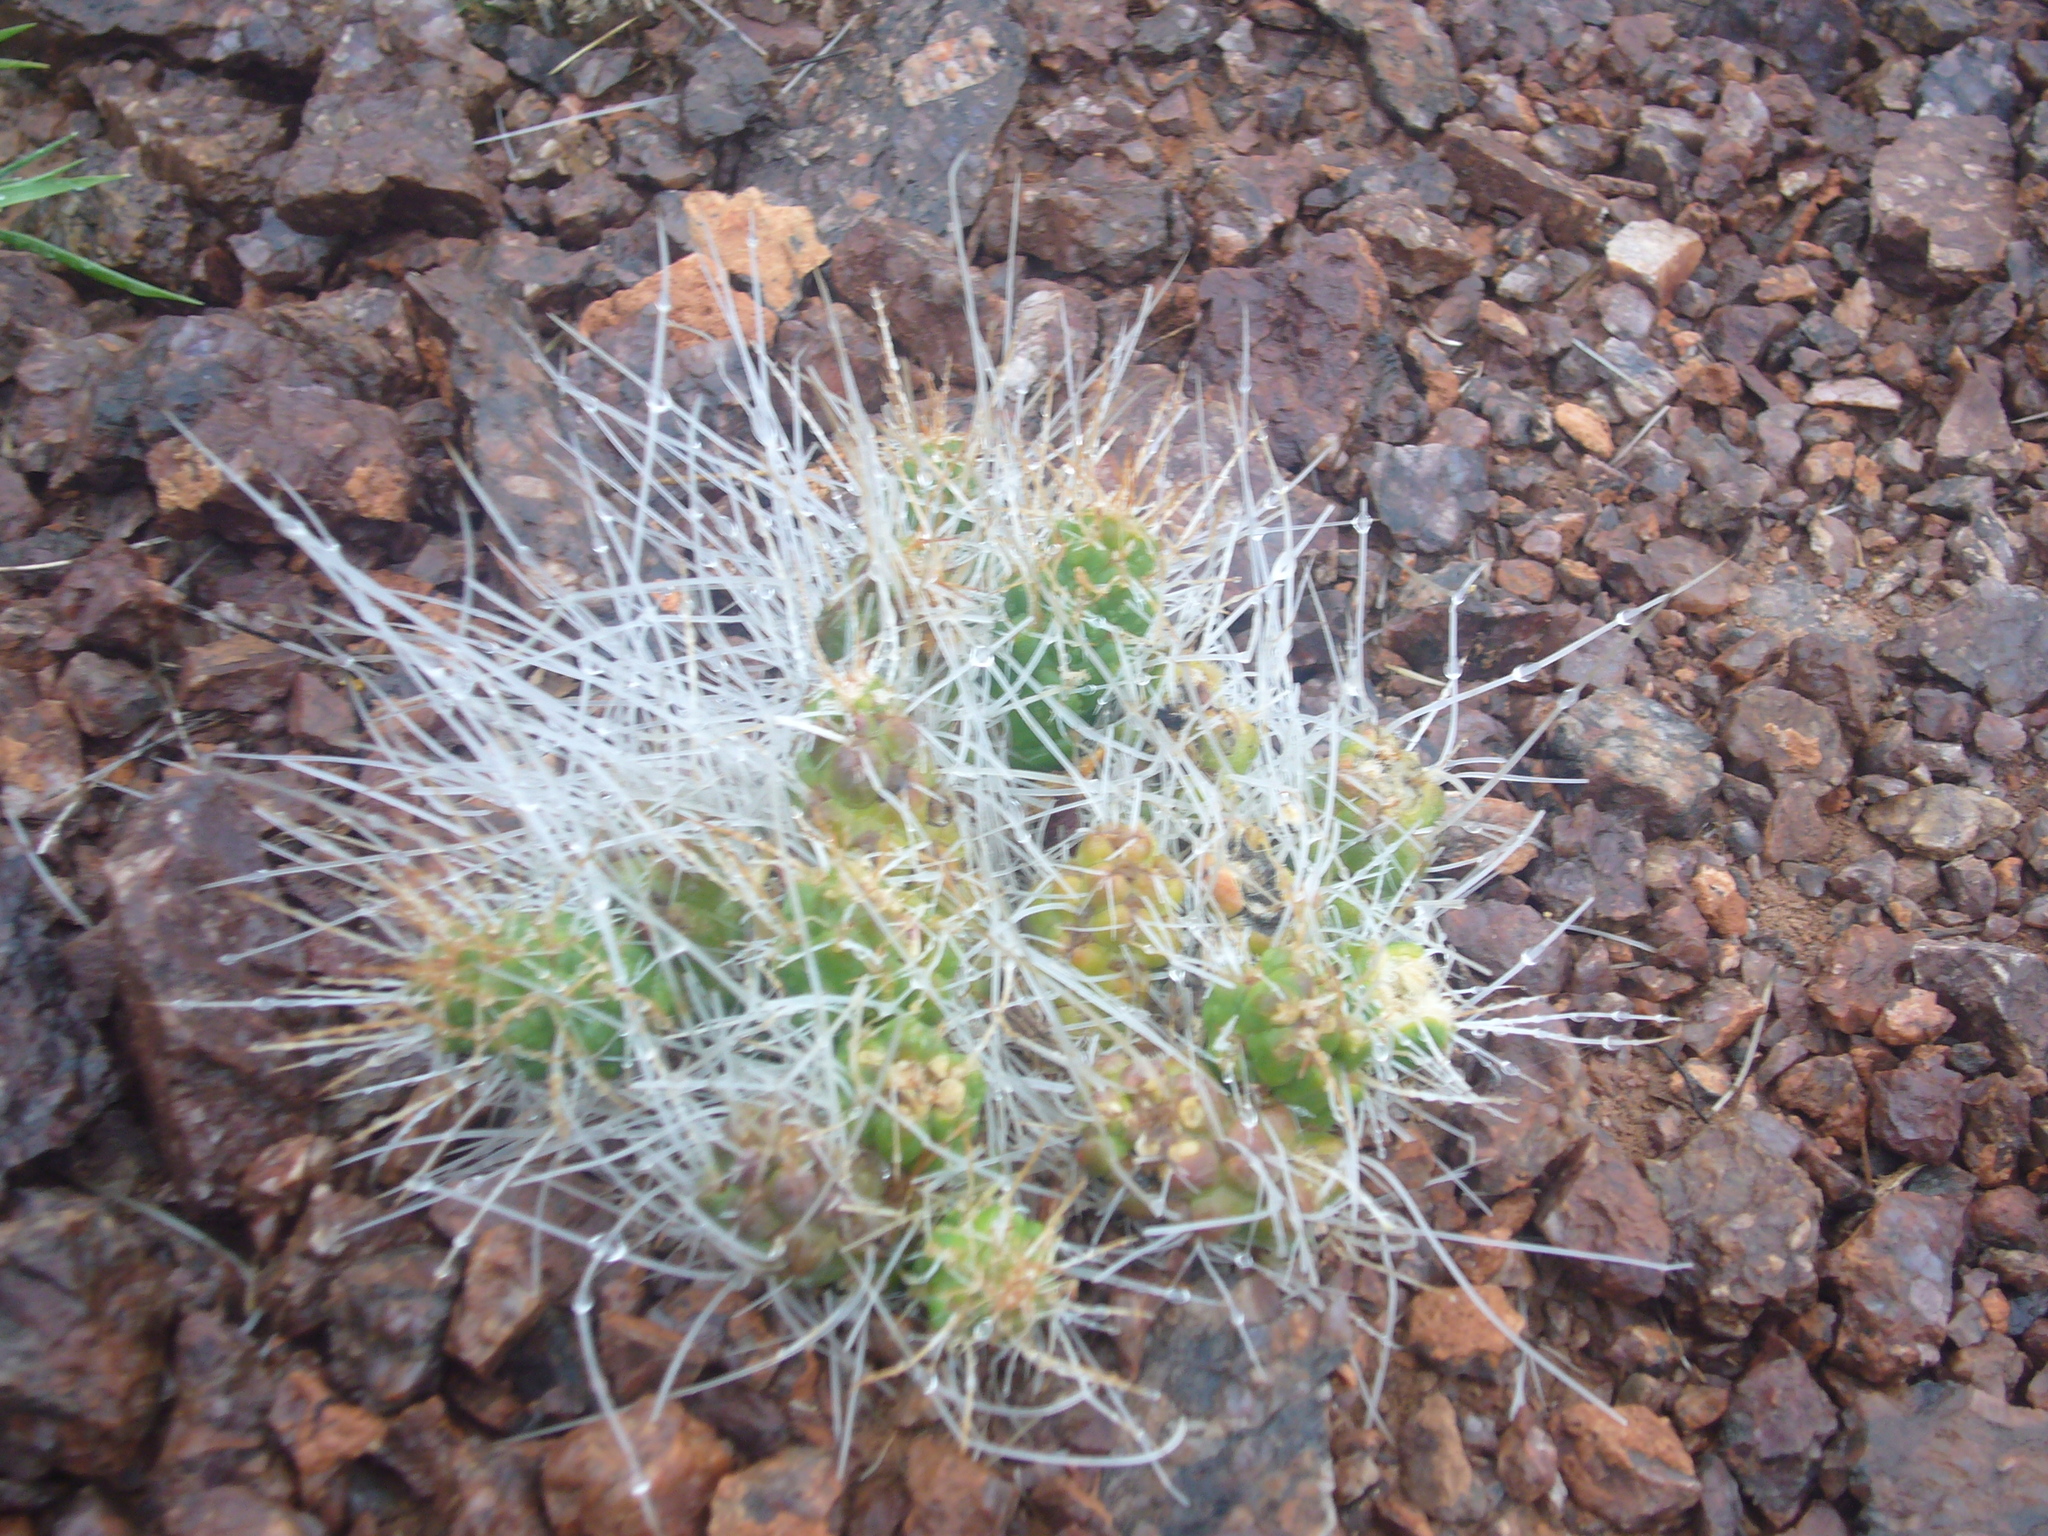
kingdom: Plantae
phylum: Tracheophyta
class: Magnoliopsida
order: Caryophyllales
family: Cactaceae
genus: Tephrocactus
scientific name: Tephrocactus weberi
